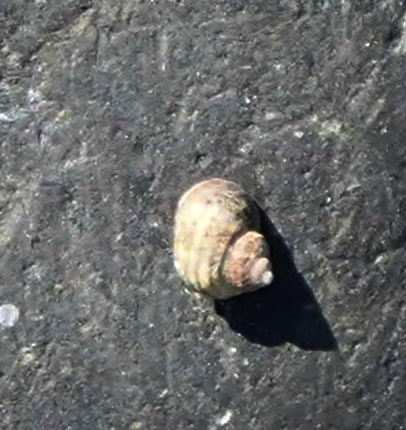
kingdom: Animalia
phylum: Mollusca
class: Gastropoda
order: Littorinimorpha
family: Littorinidae
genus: Littorina
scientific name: Littorina sitkana
